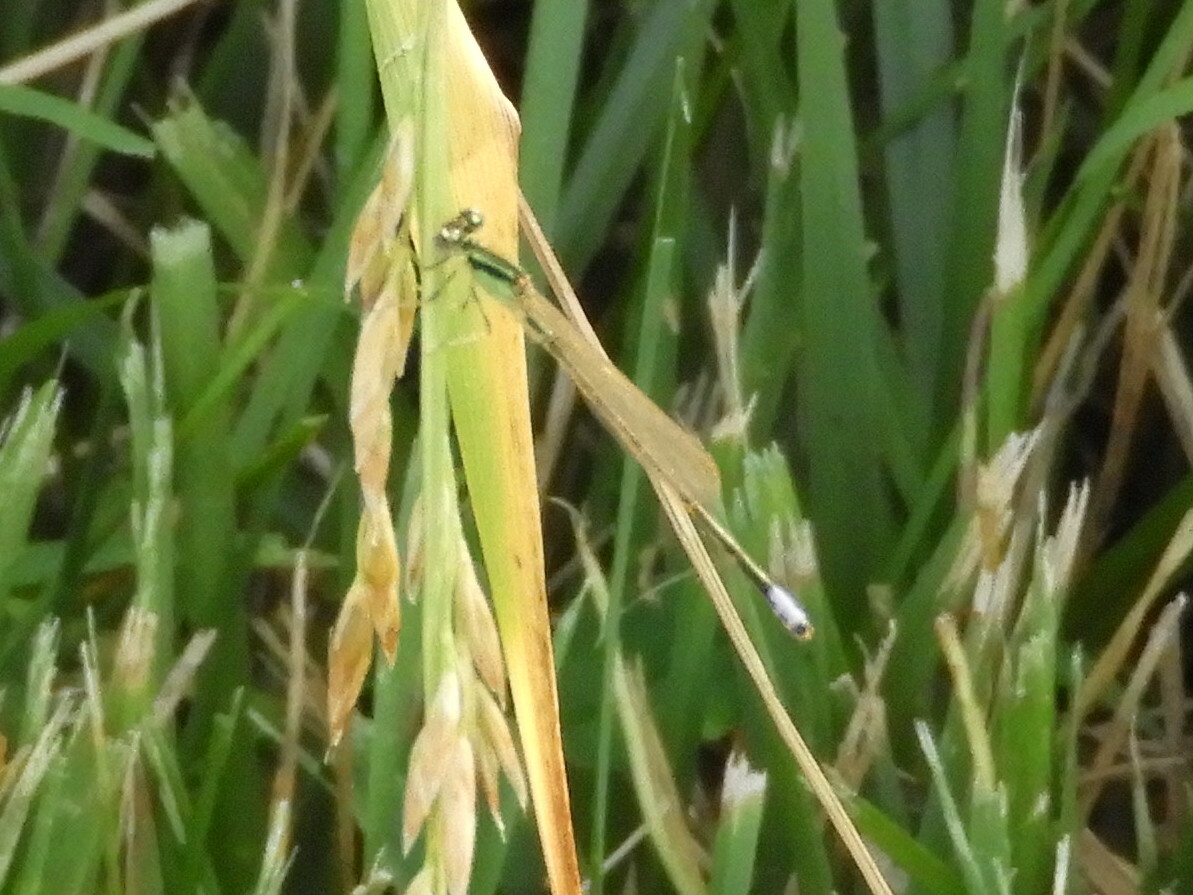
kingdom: Animalia
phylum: Arthropoda
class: Insecta
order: Odonata
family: Coenagrionidae
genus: Ischnura
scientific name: Ischnura verticalis
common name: Eastern forktail
